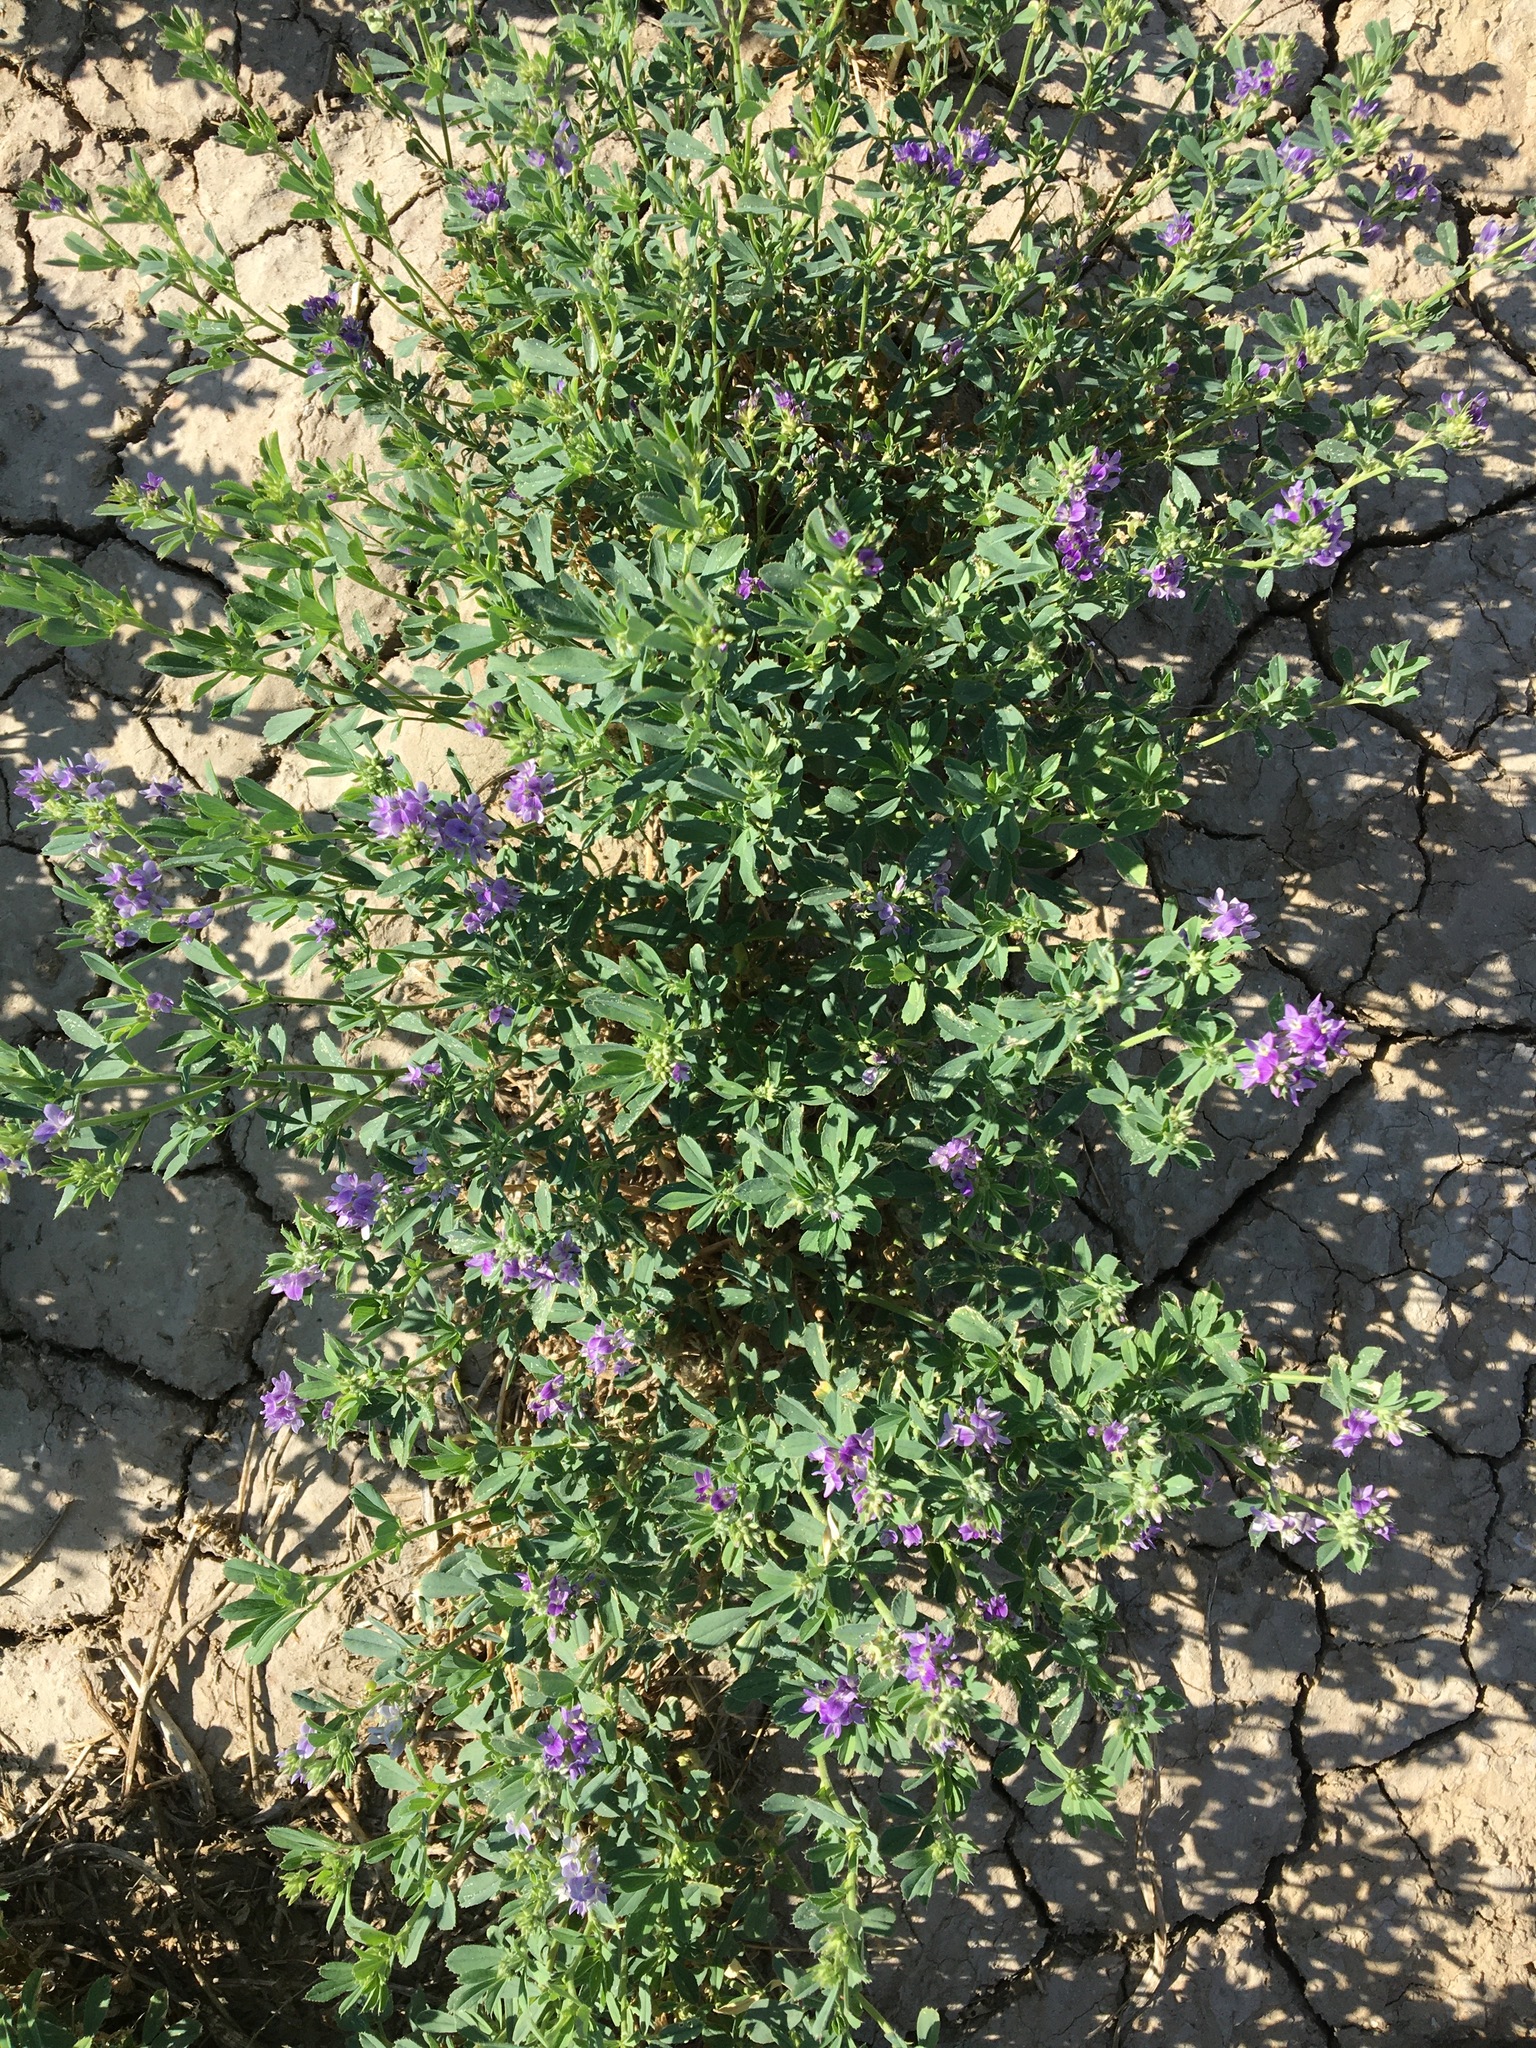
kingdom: Plantae
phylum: Tracheophyta
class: Magnoliopsida
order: Fabales
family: Fabaceae
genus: Medicago
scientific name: Medicago sativa
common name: Alfalfa
